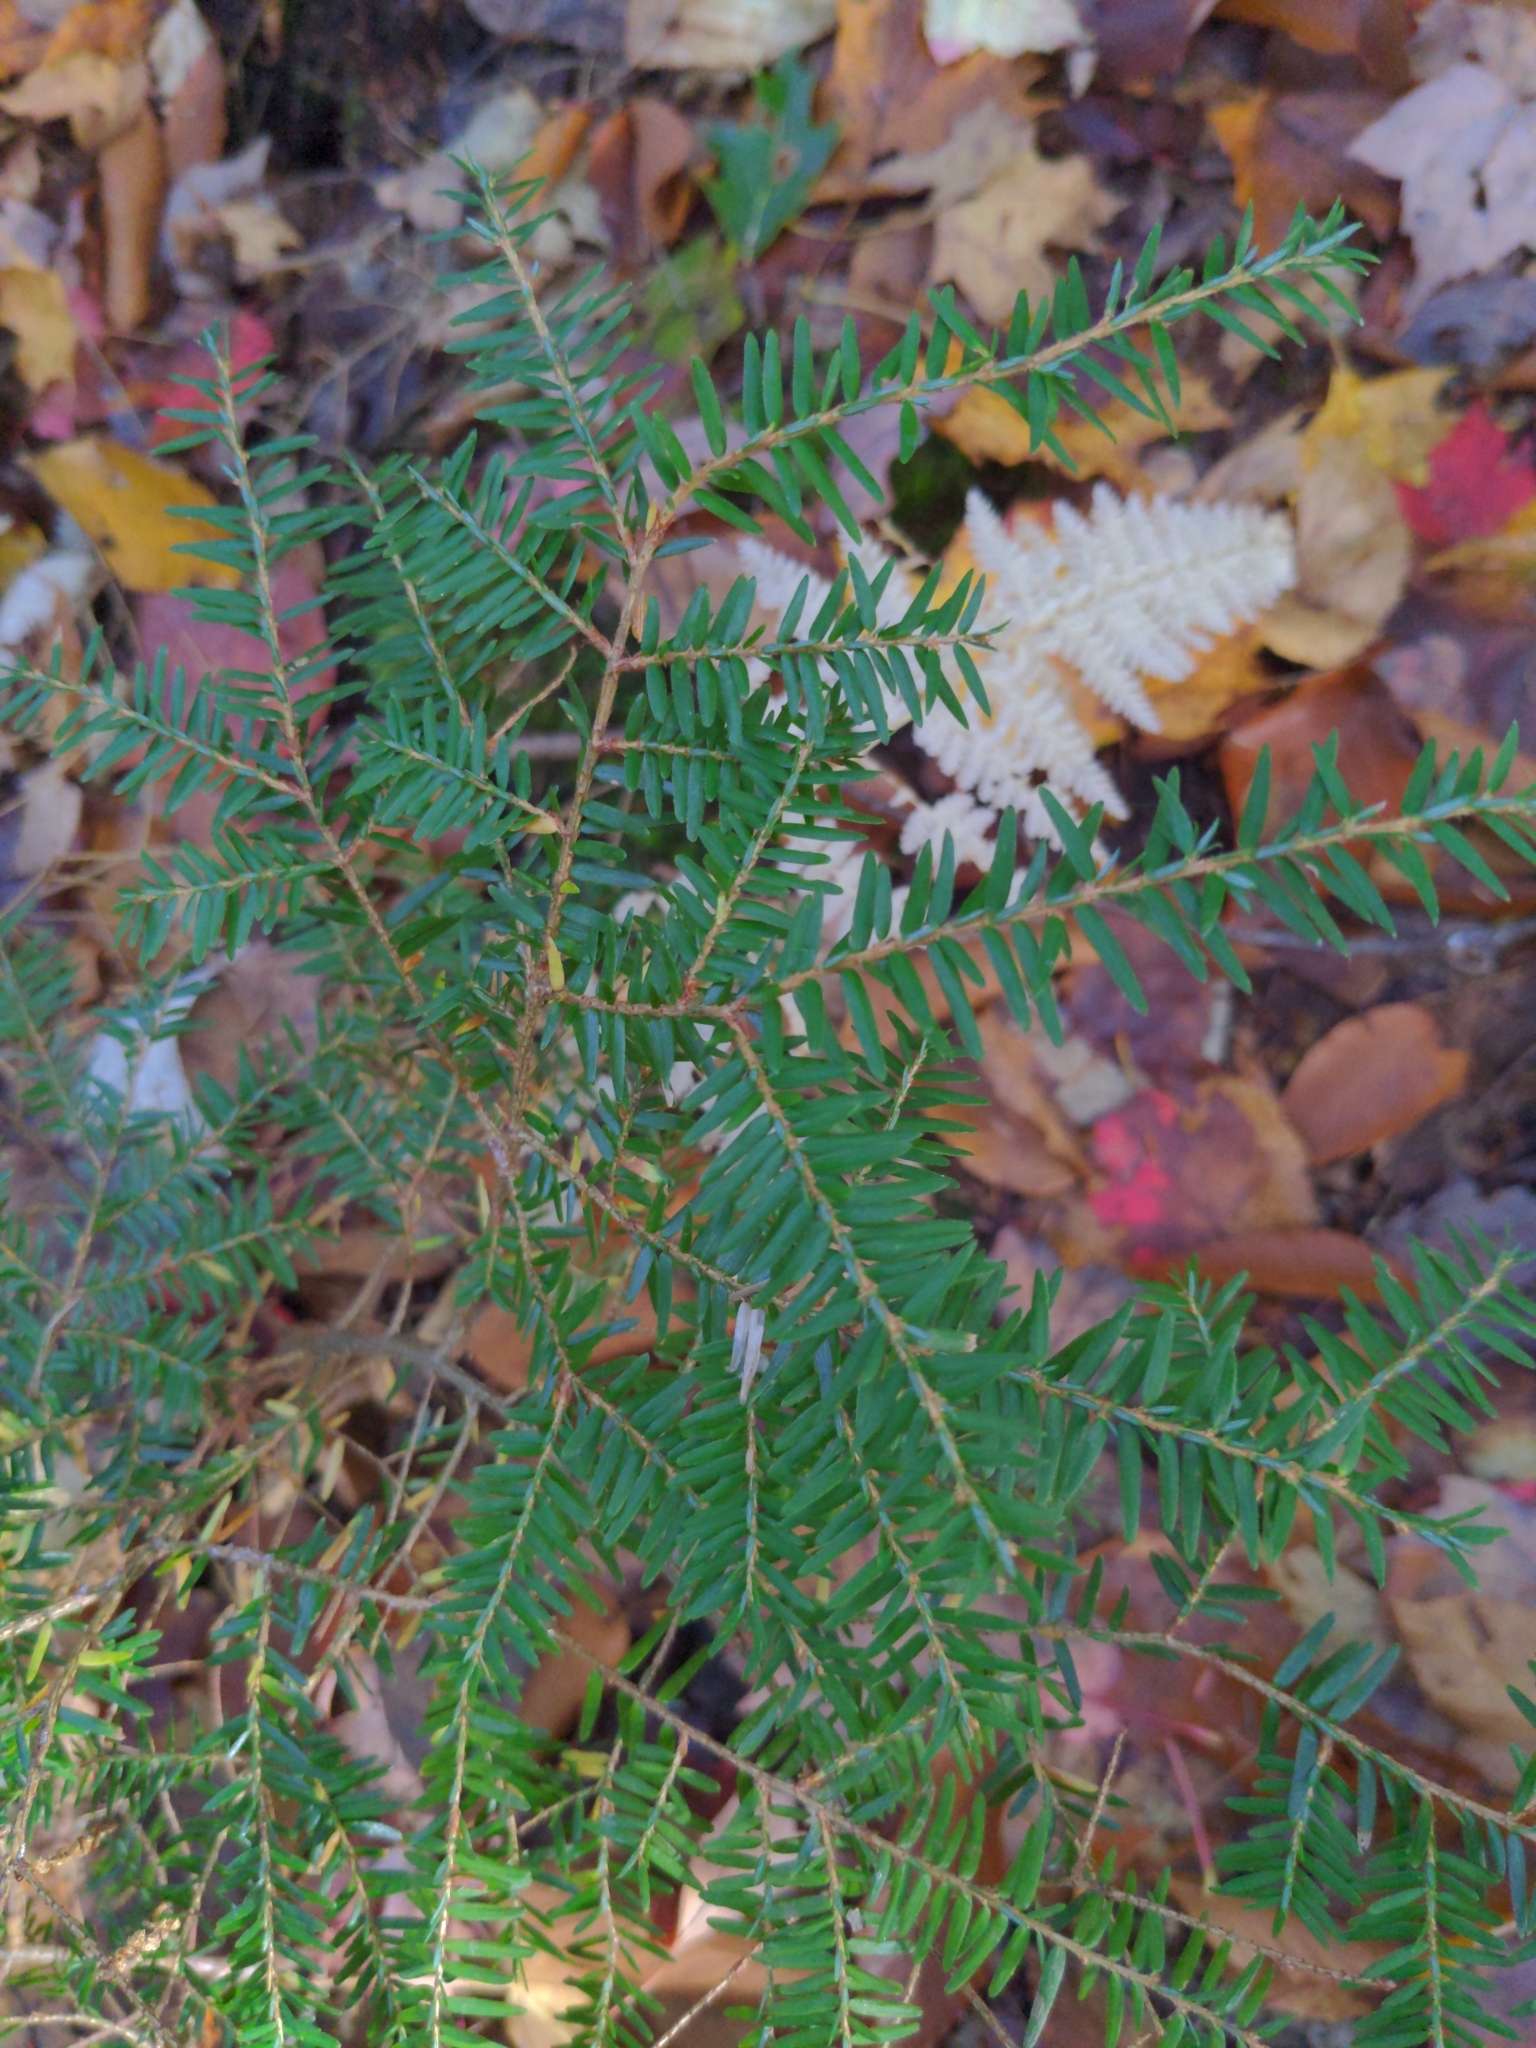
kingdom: Plantae
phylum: Tracheophyta
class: Pinopsida
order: Pinales
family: Pinaceae
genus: Tsuga
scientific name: Tsuga canadensis
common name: Eastern hemlock
